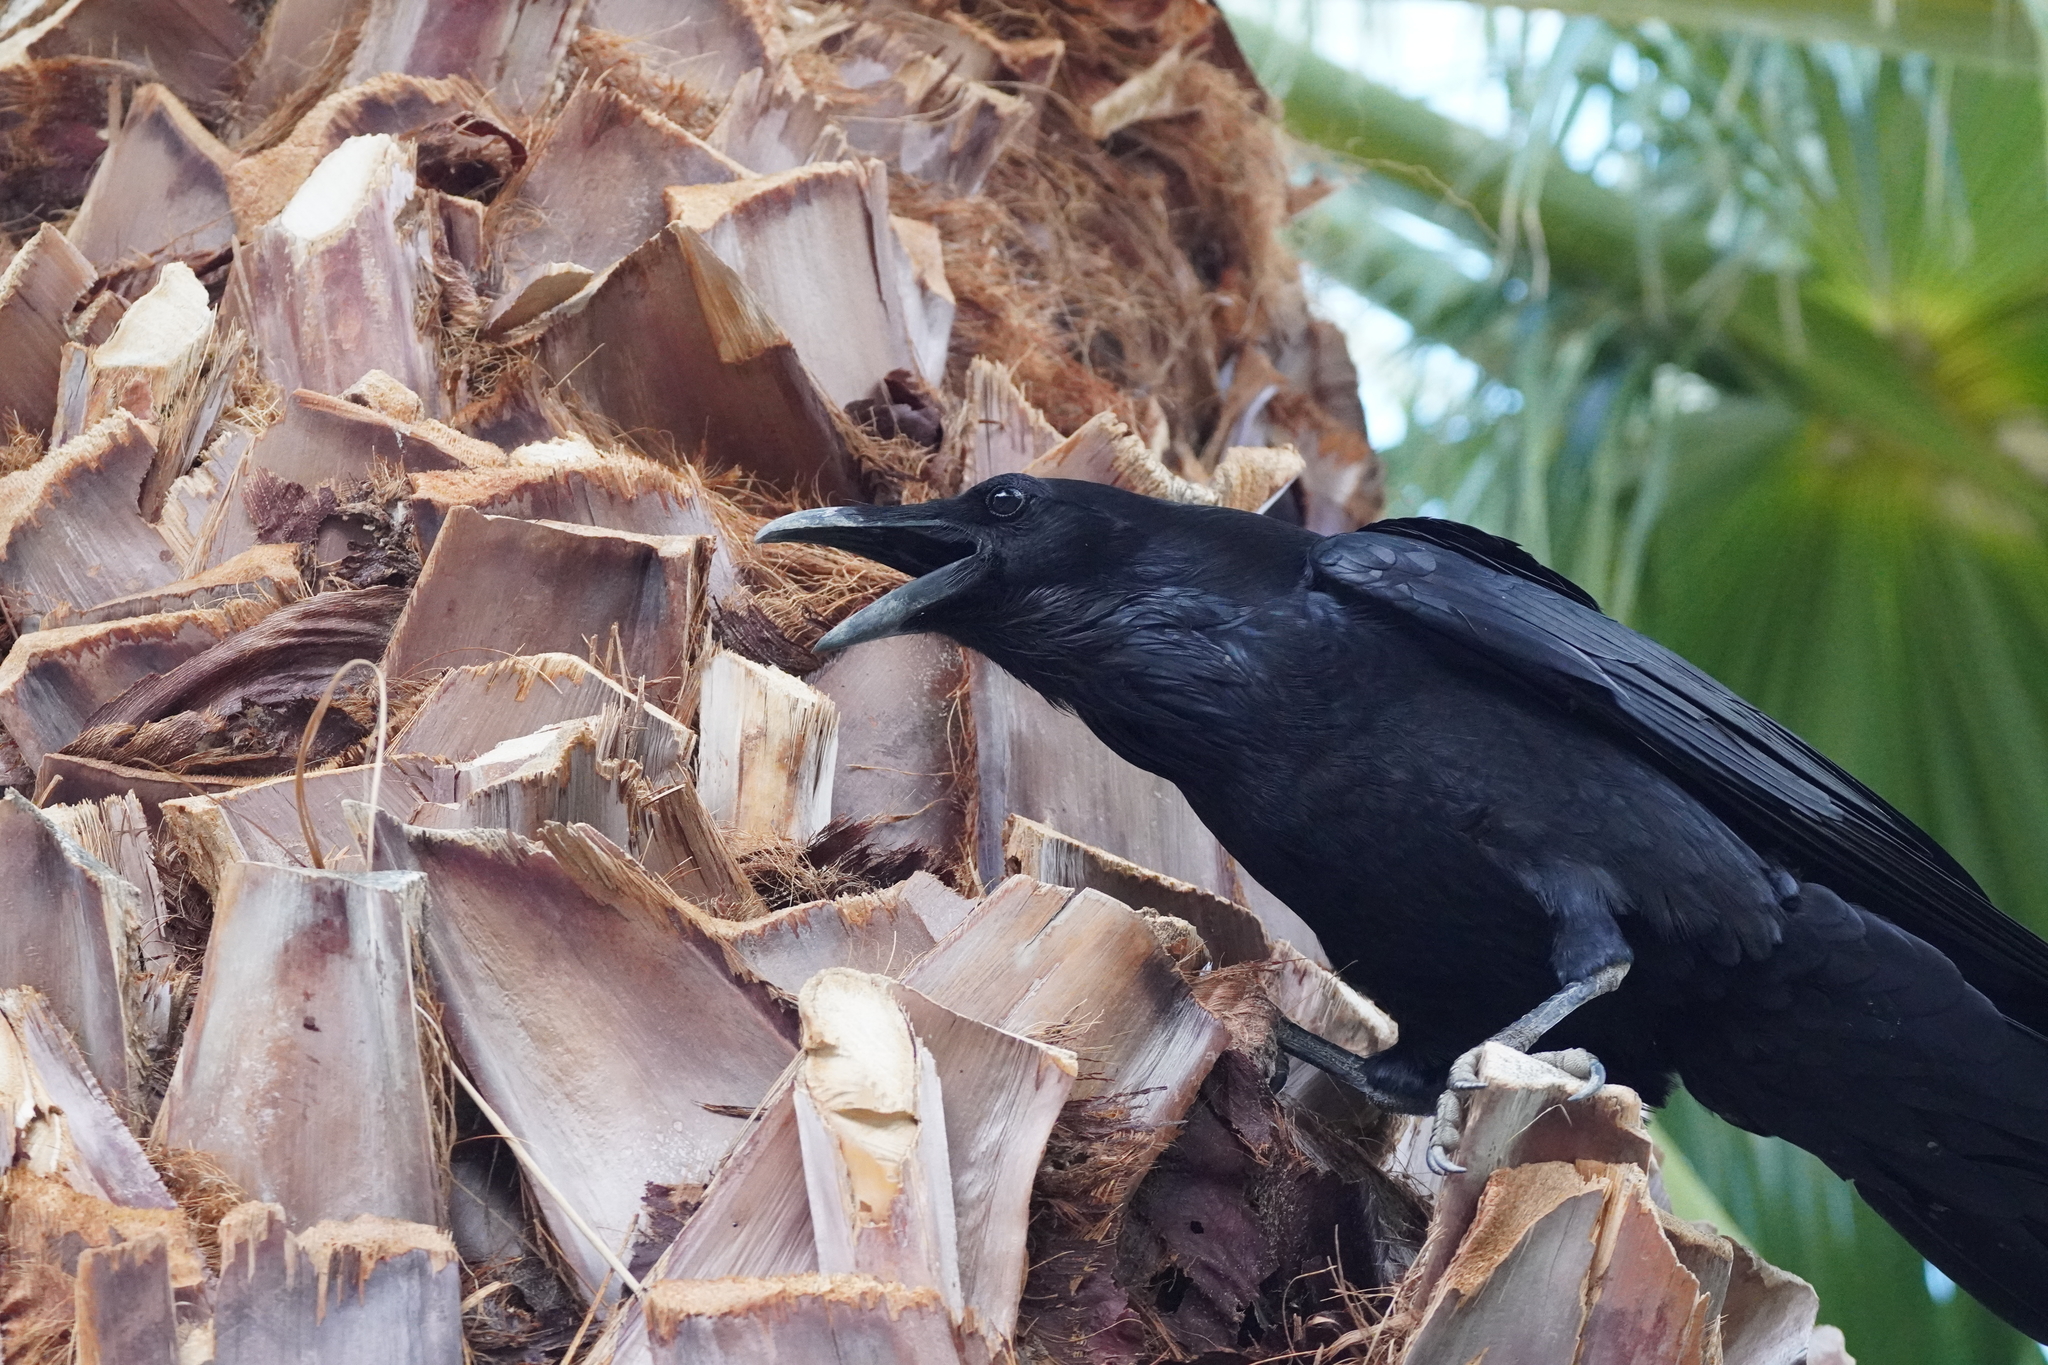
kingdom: Animalia
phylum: Chordata
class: Aves
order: Passeriformes
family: Corvidae
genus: Corvus
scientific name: Corvus corax
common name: Common raven
